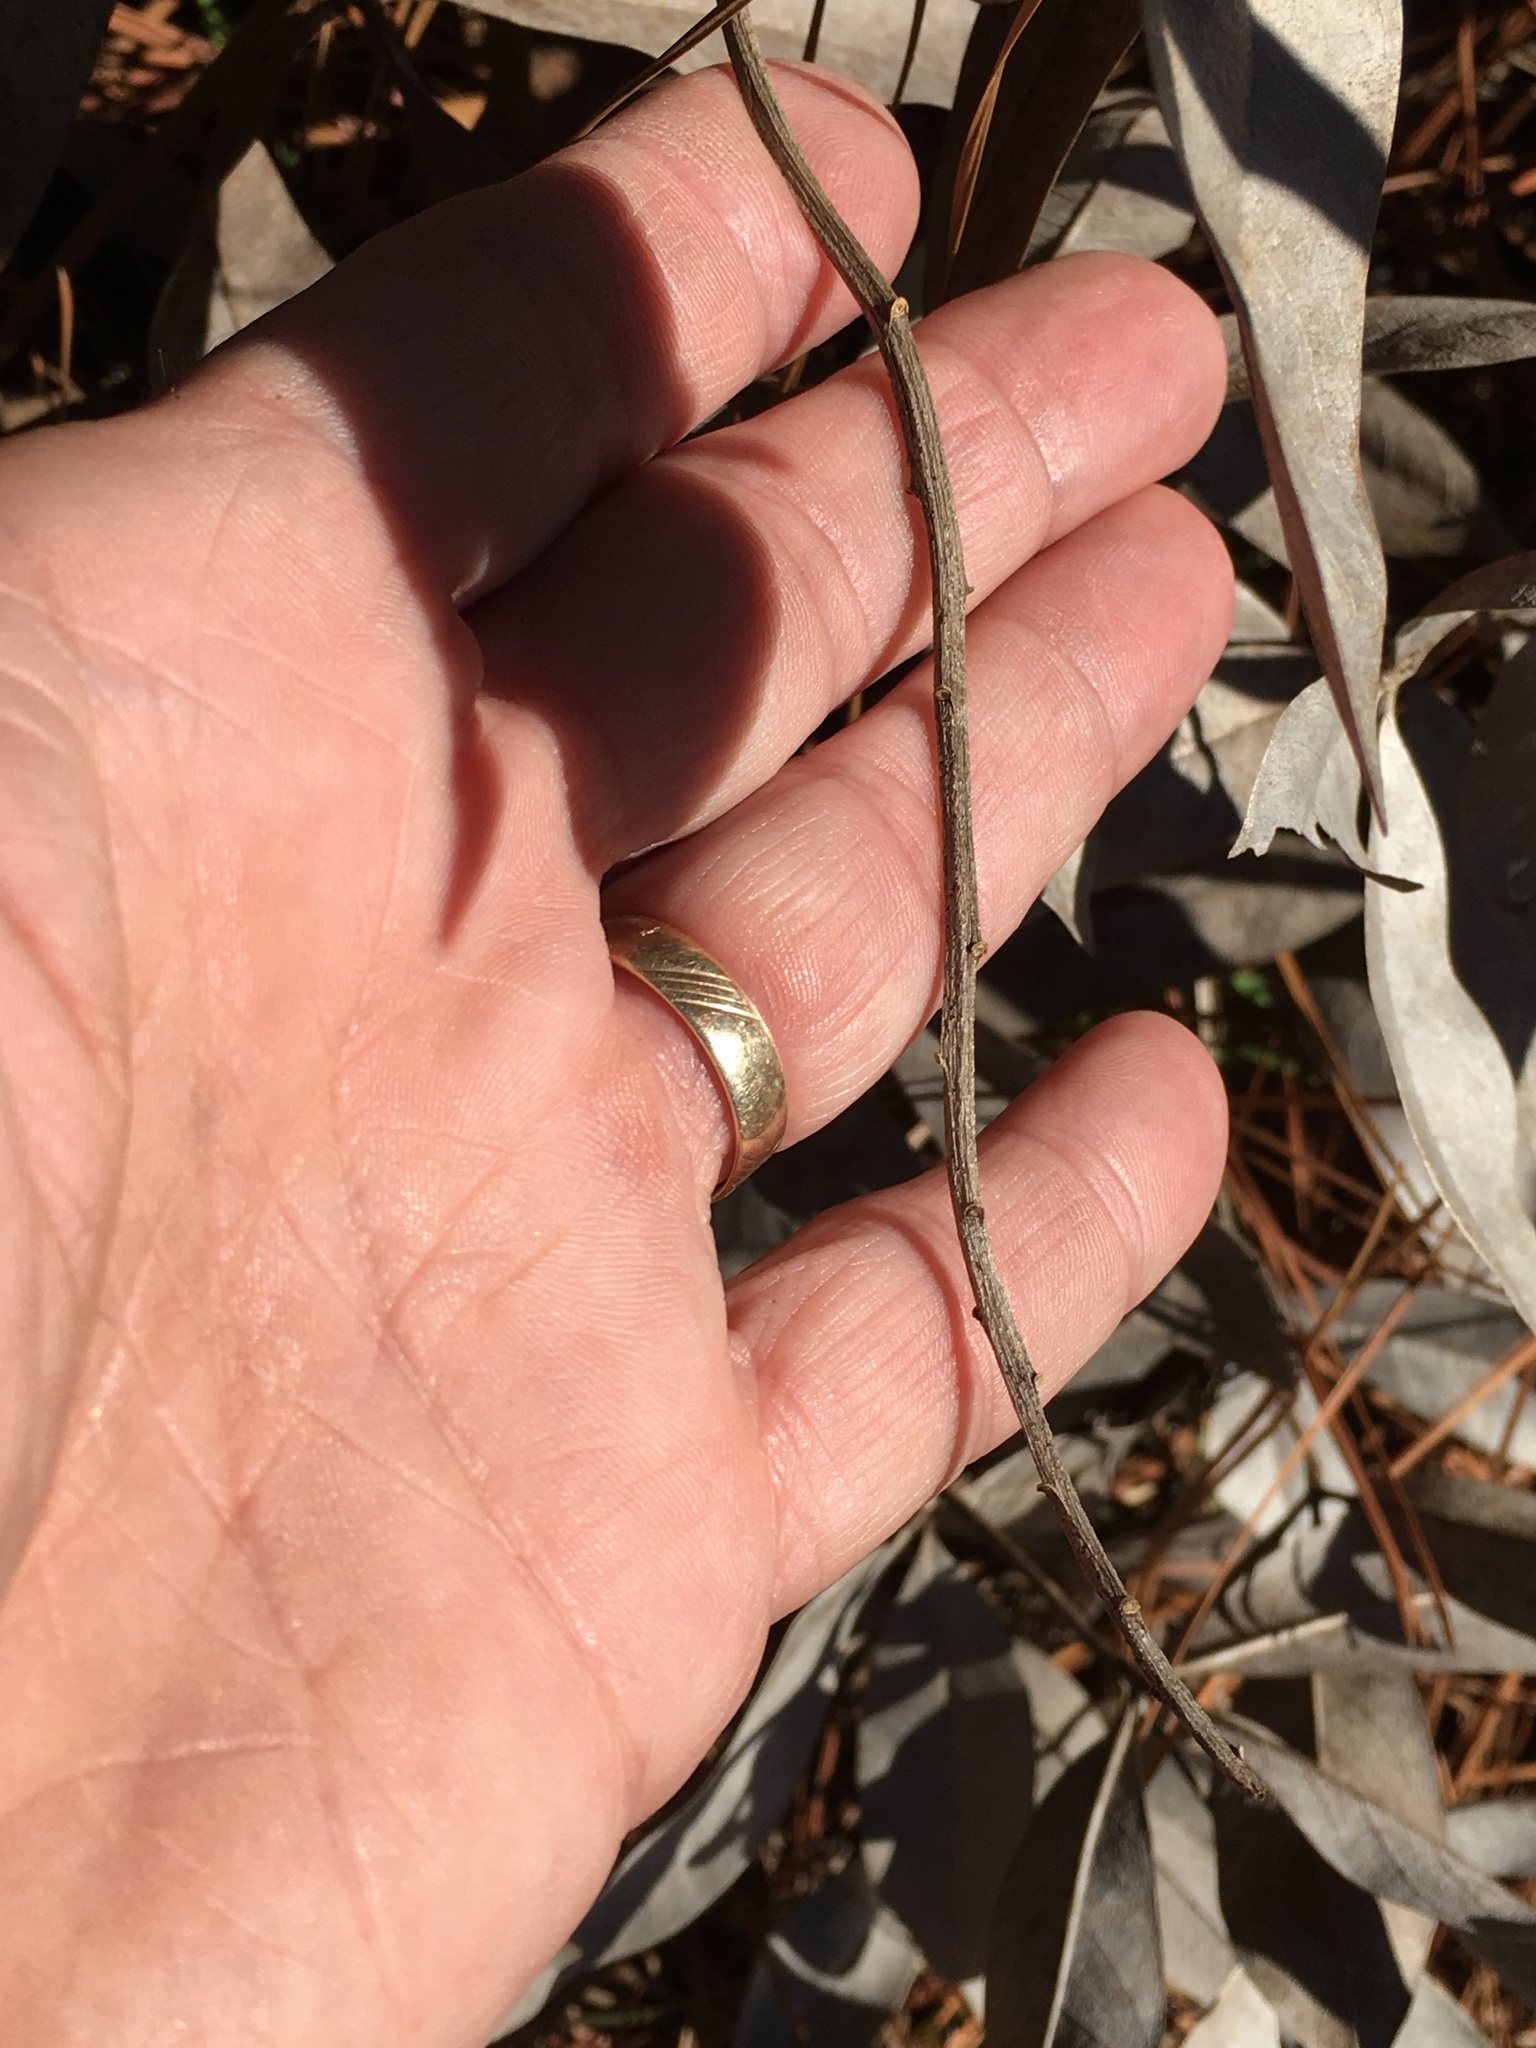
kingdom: Plantae
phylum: Tracheophyta
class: Magnoliopsida
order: Fabales
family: Fabaceae
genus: Baptisia
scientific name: Baptisia cinerea
